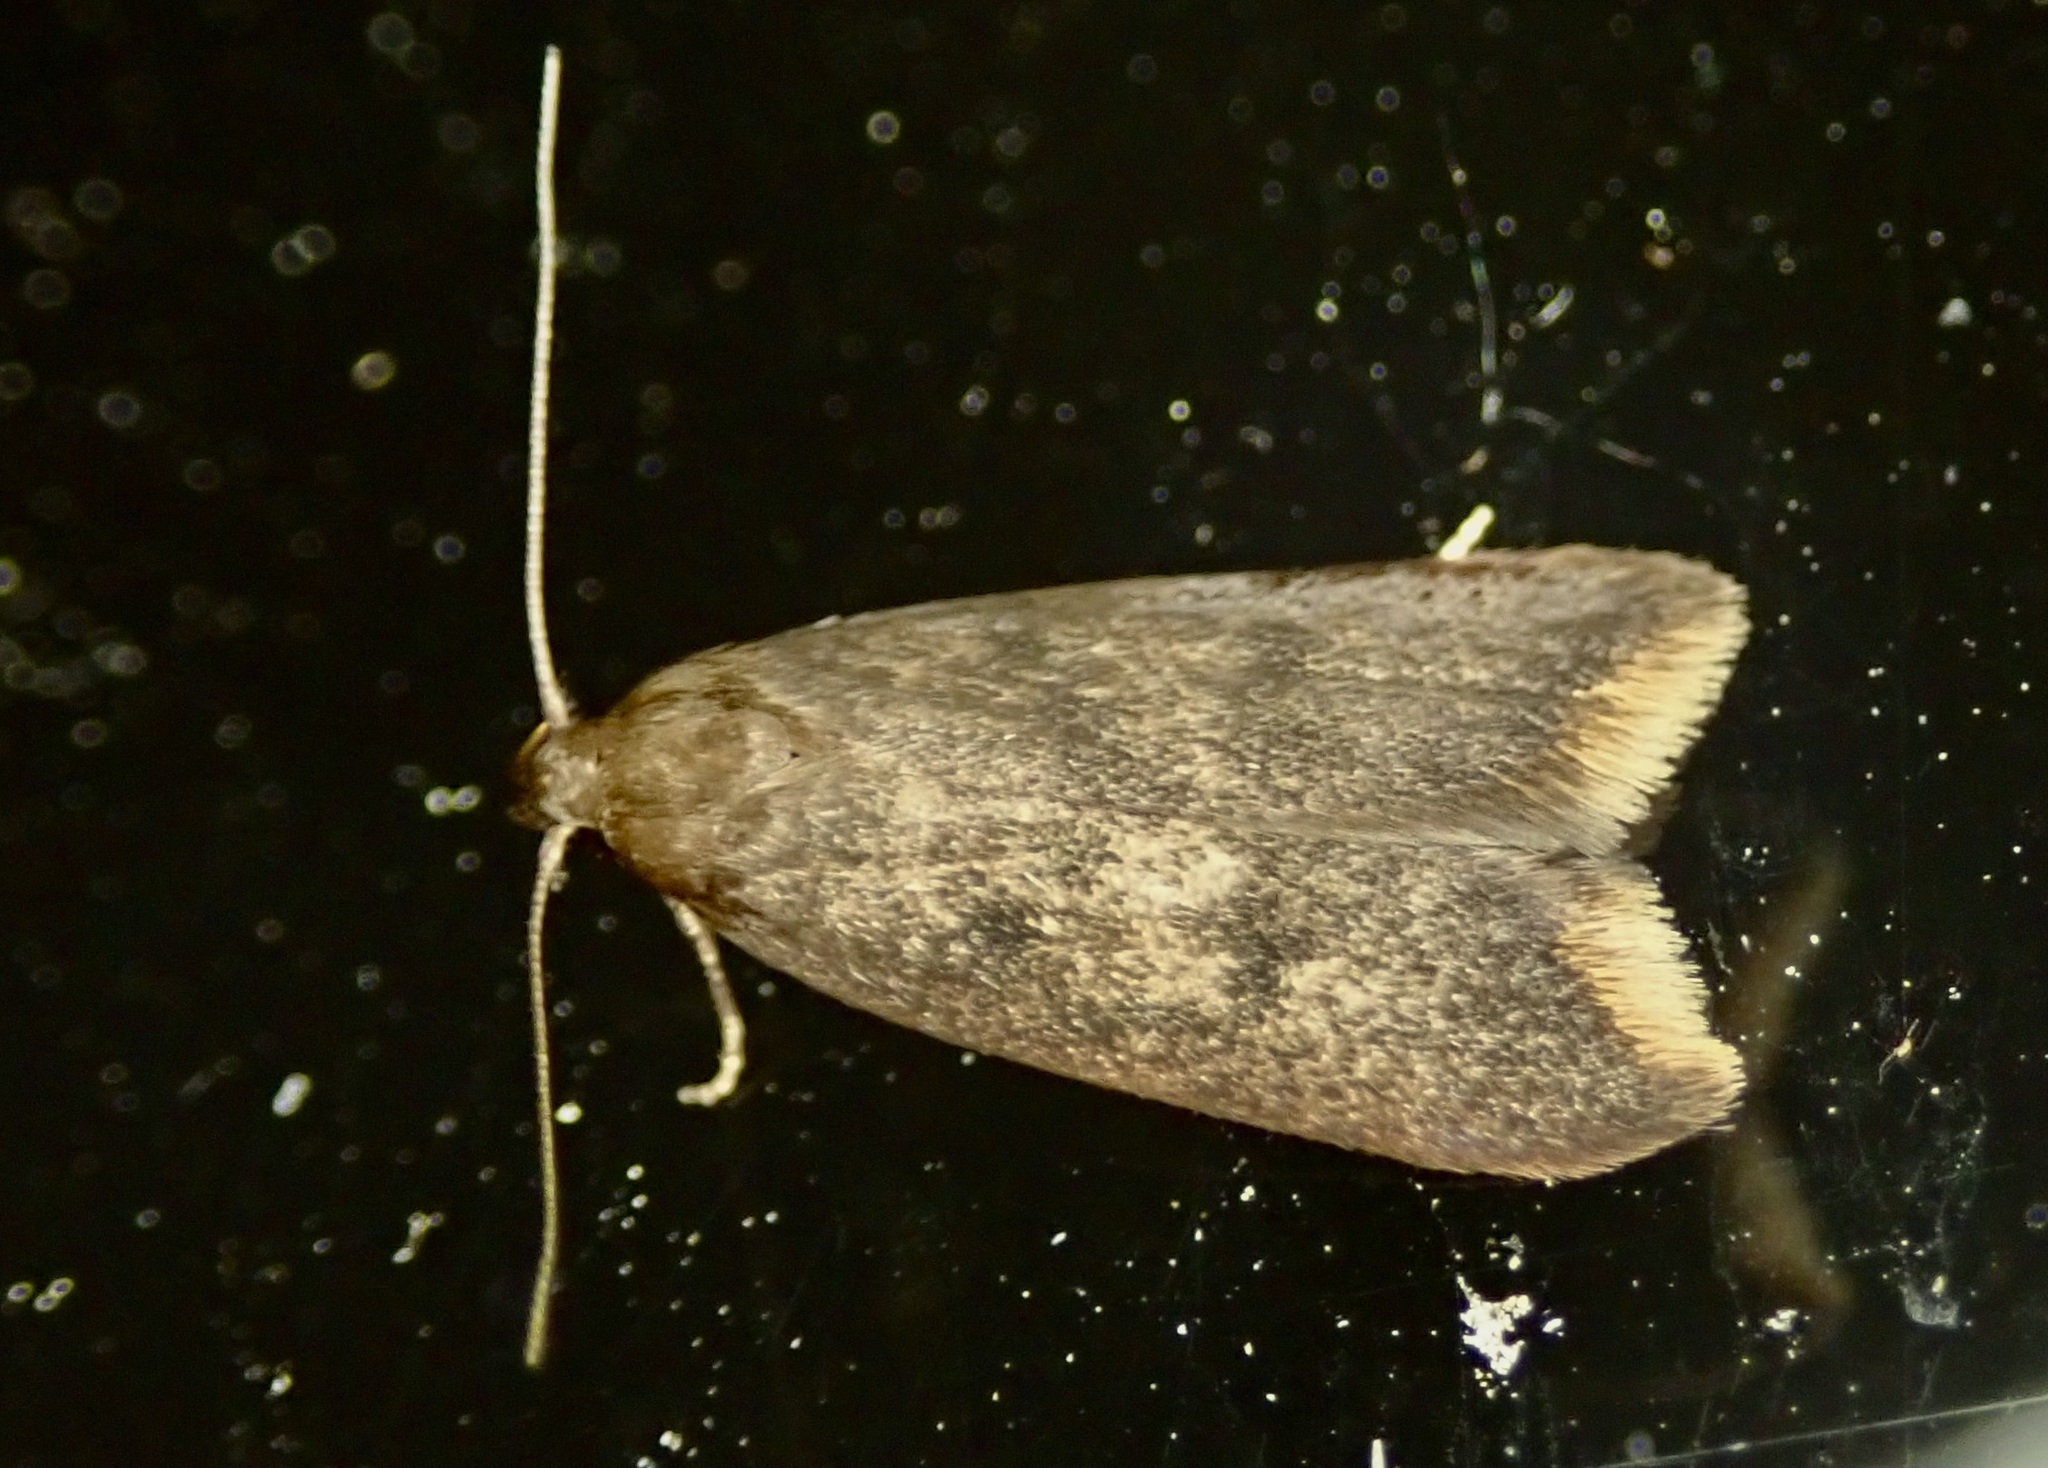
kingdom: Animalia
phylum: Arthropoda
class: Insecta
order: Lepidoptera
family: Oecophoridae
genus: Tachystola
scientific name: Tachystola acroxantha
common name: Ruddy streak
